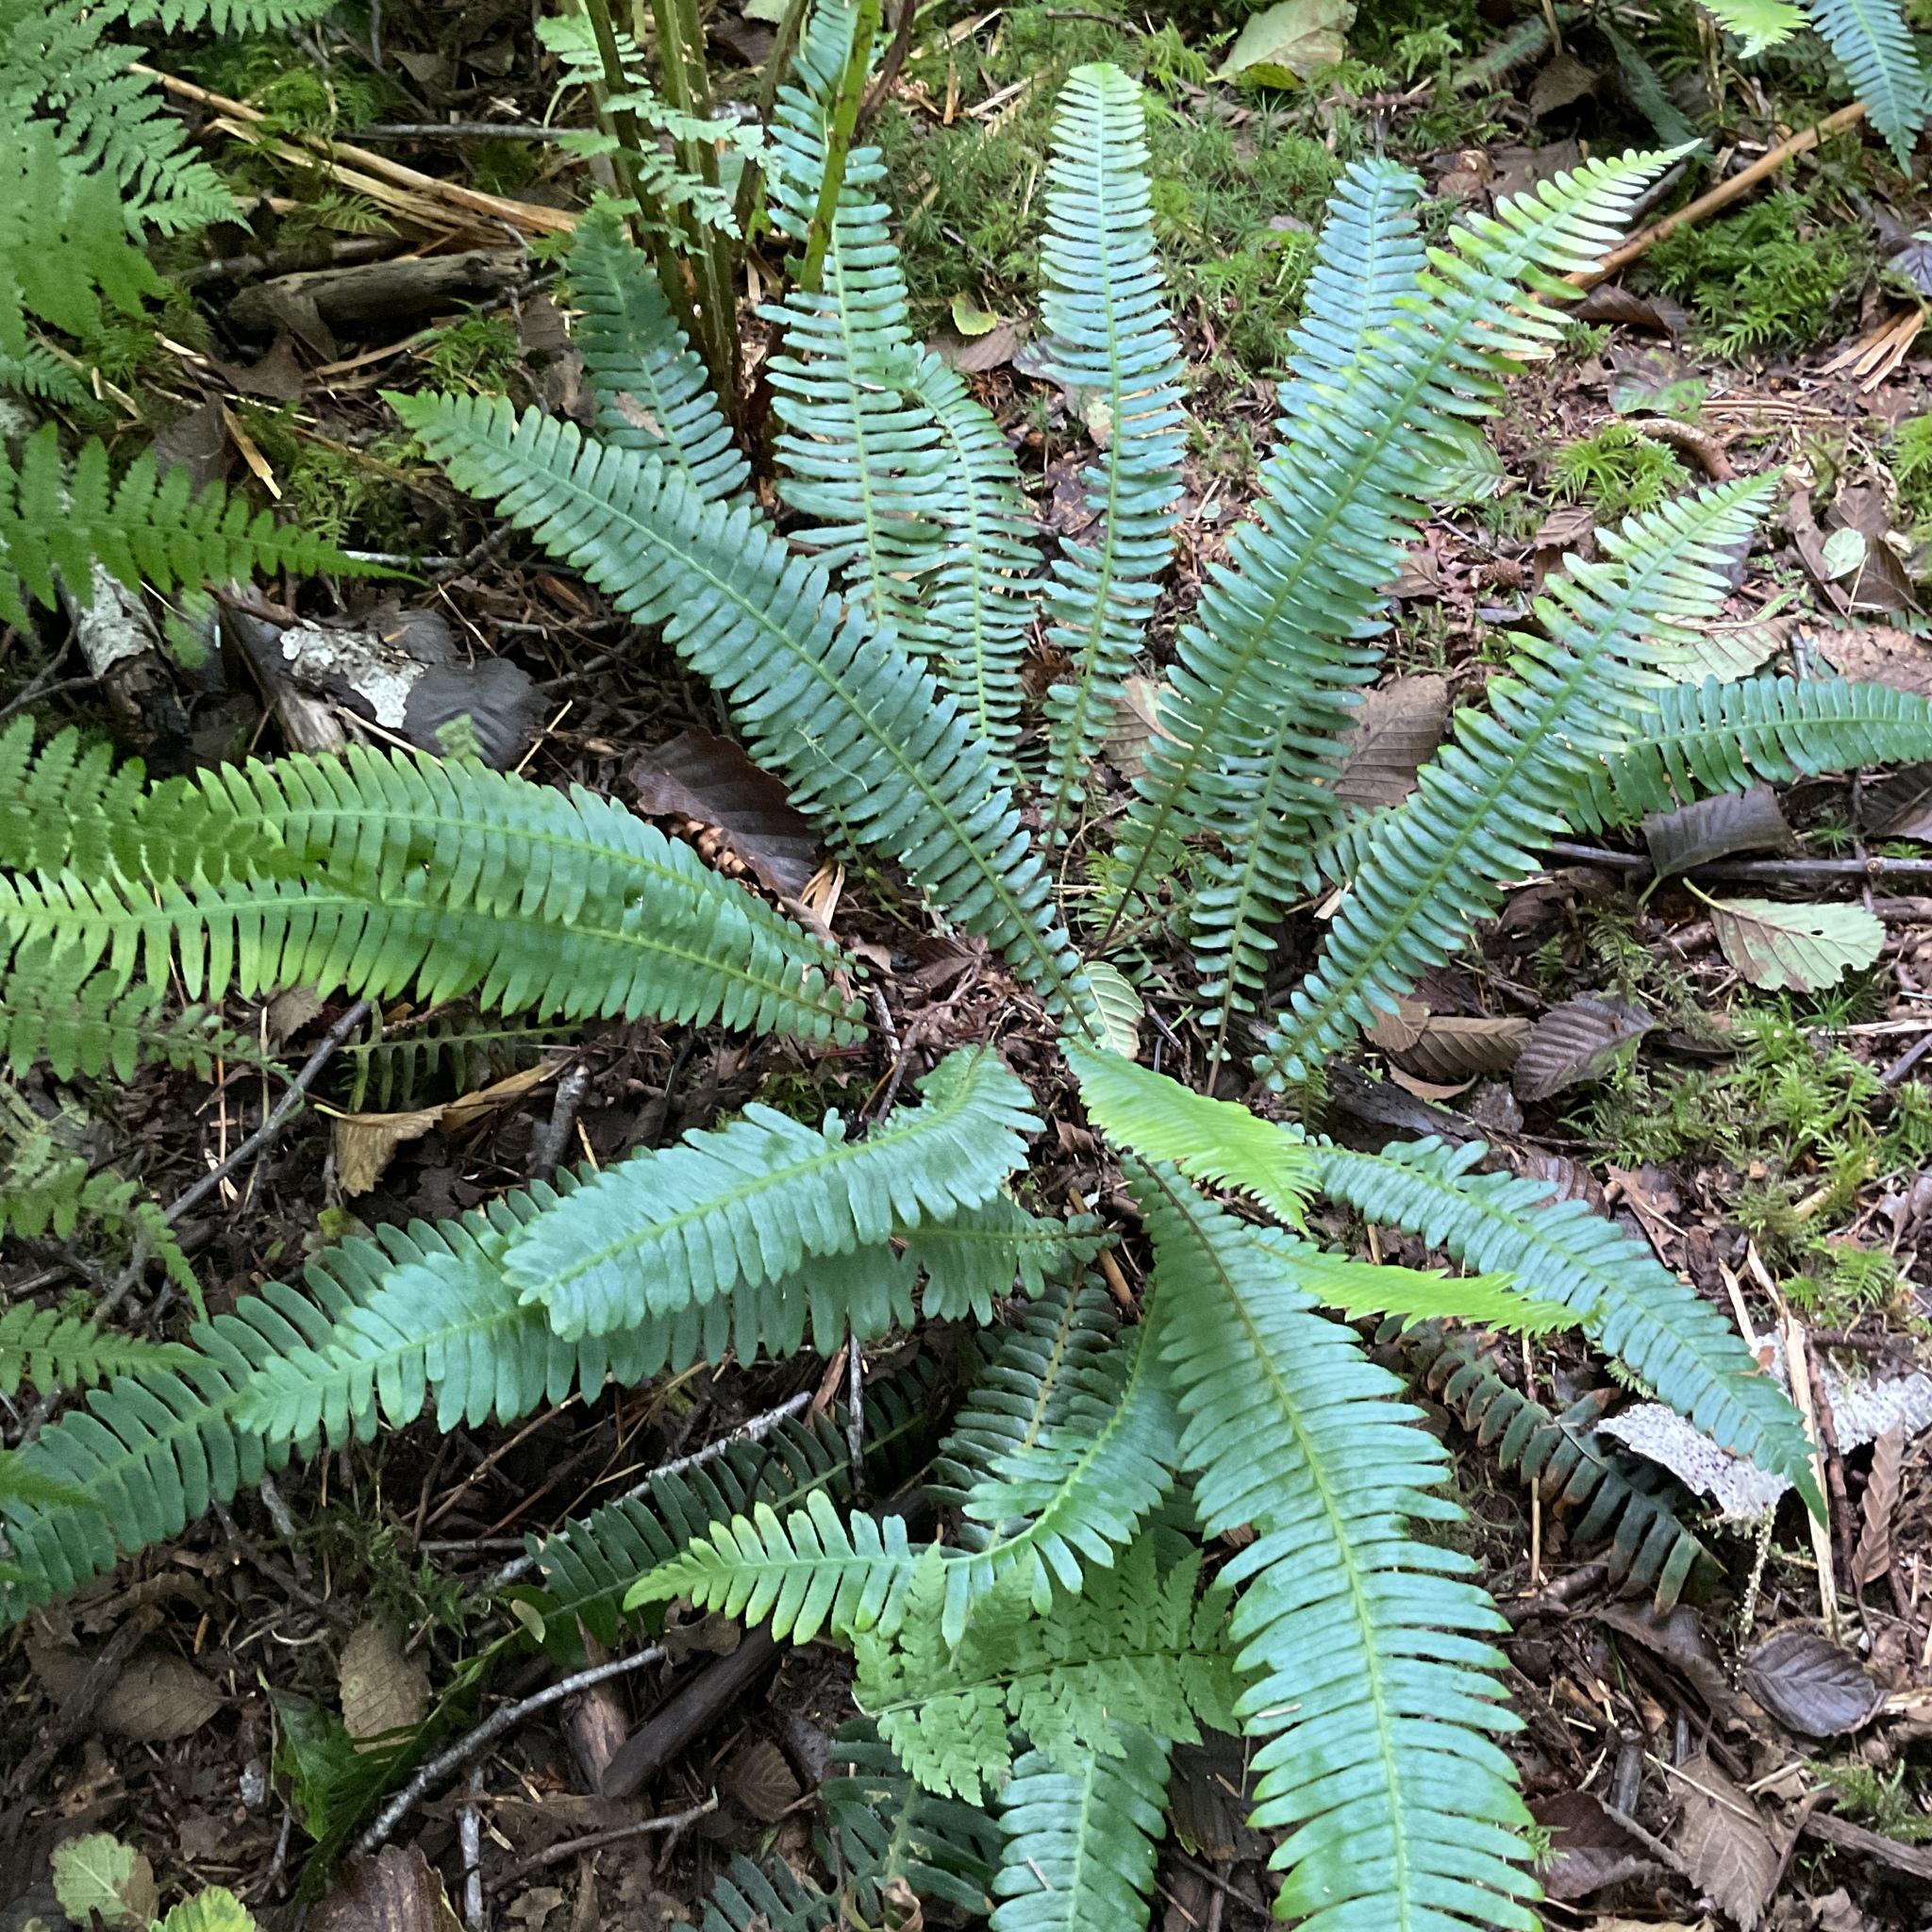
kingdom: Plantae
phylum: Tracheophyta
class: Polypodiopsida
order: Polypodiales
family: Blechnaceae
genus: Struthiopteris
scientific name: Struthiopteris spicant
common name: Deer fern
